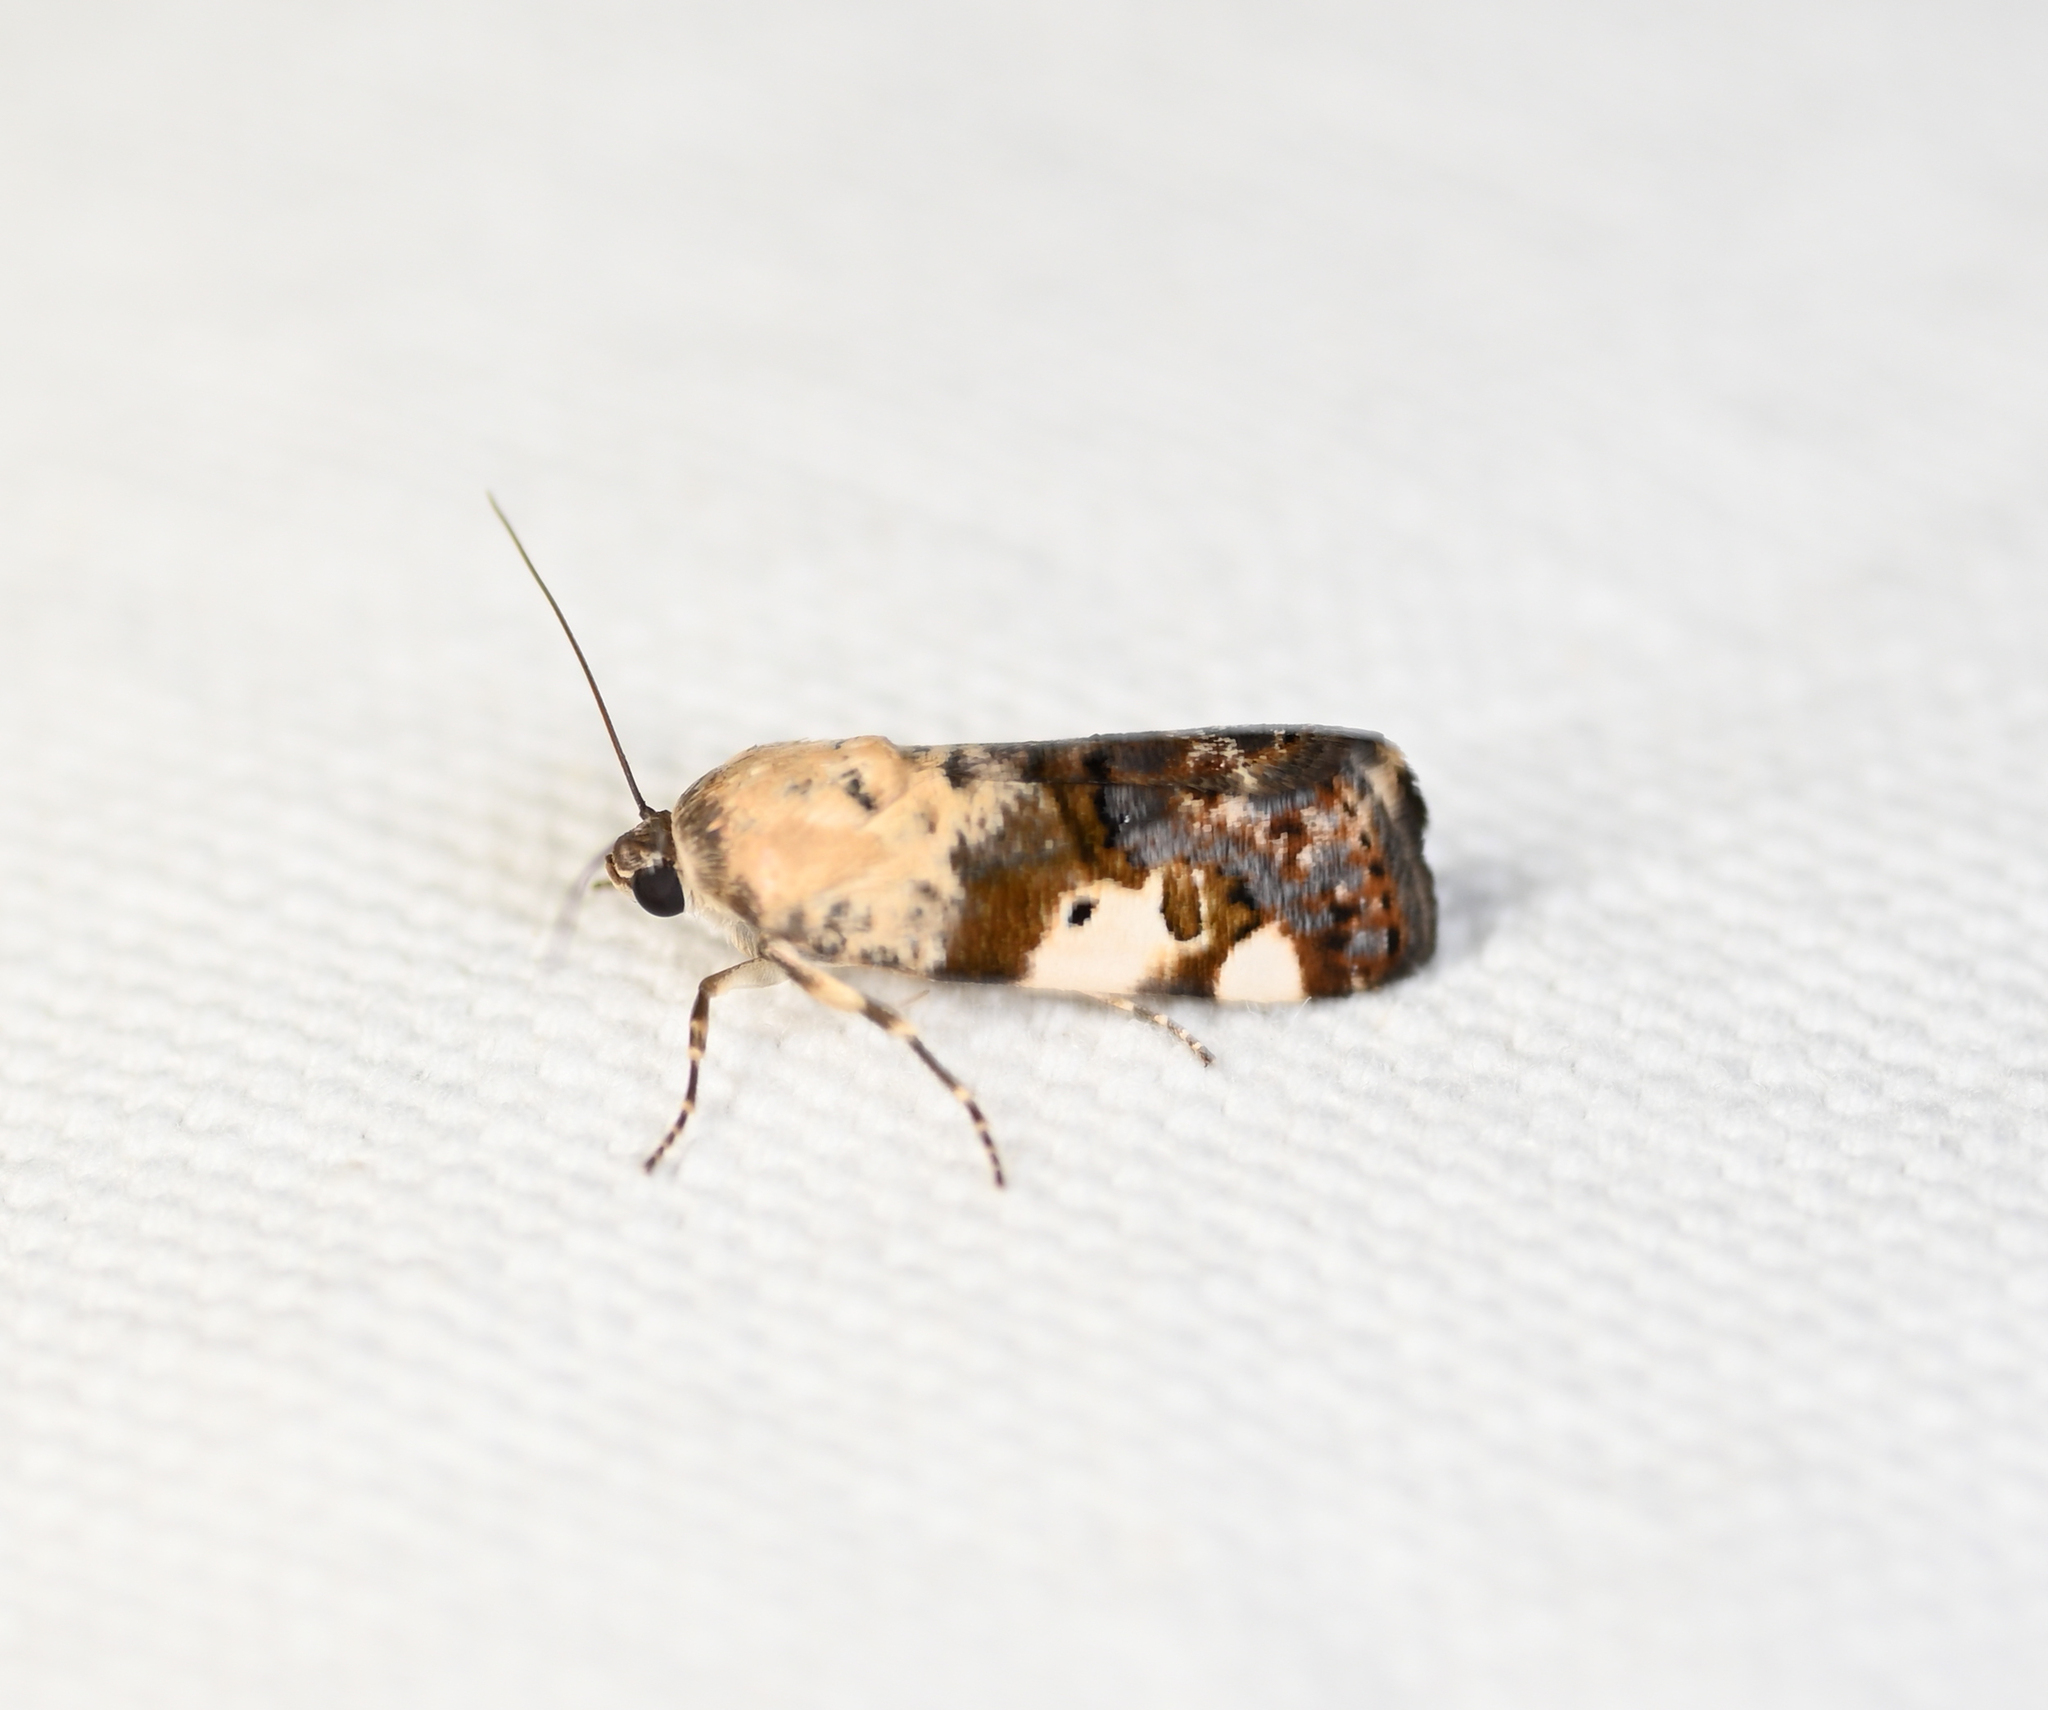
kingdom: Animalia
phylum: Arthropoda
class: Insecta
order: Lepidoptera
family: Noctuidae
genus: Acontia
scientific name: Acontia aprica
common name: Nun
